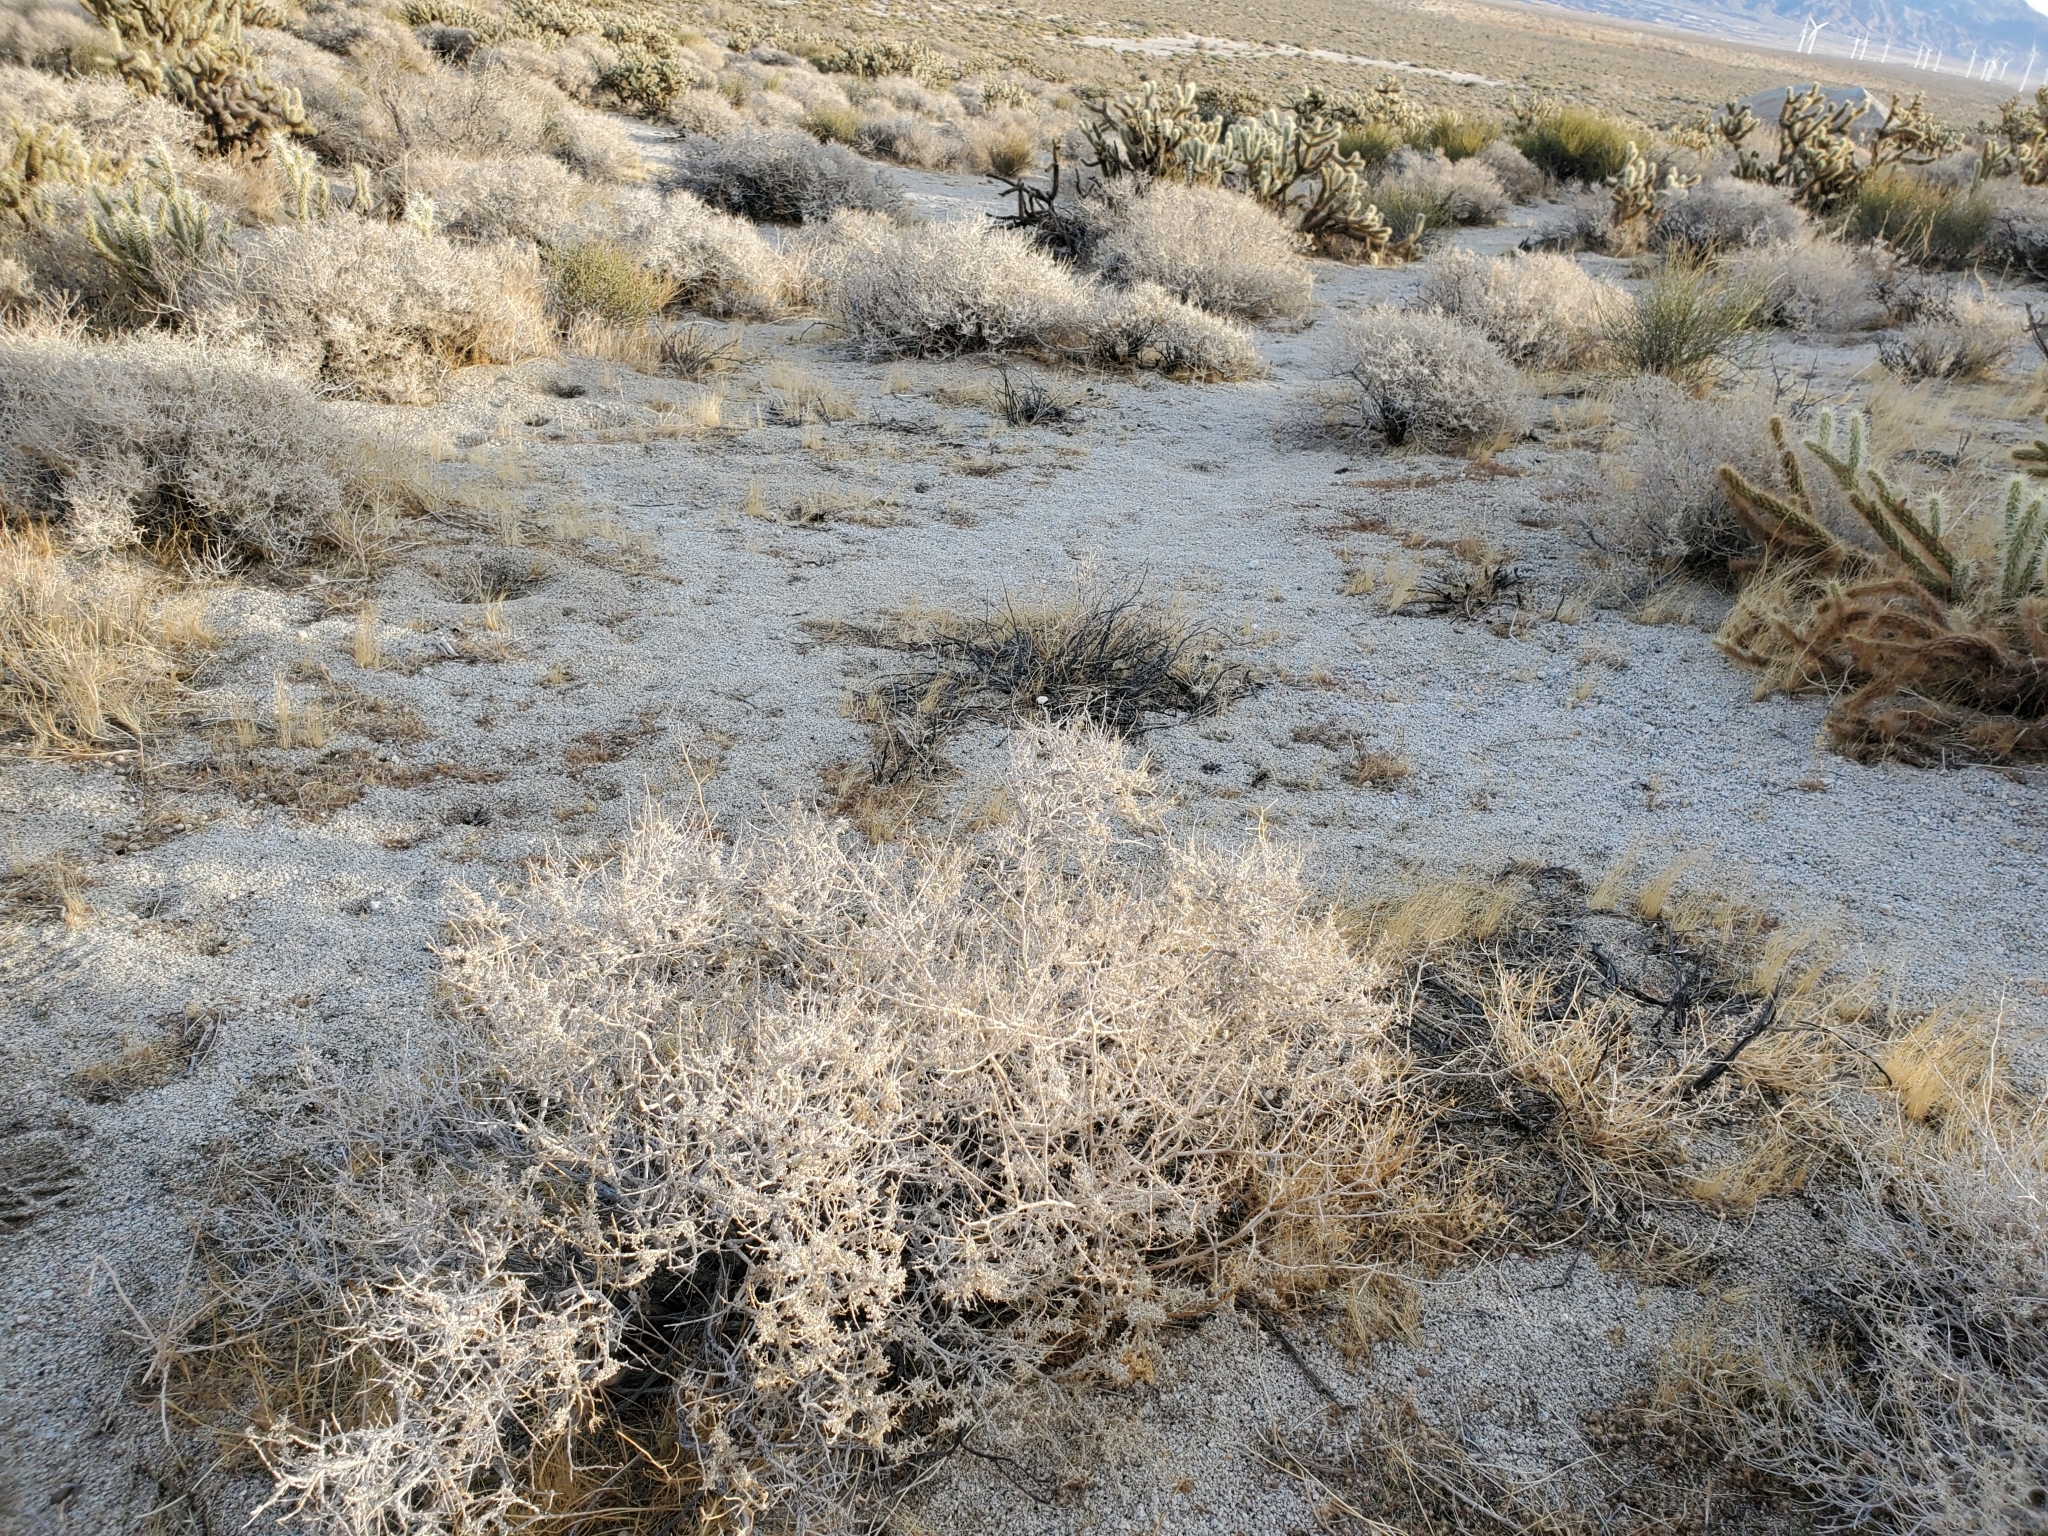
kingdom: Plantae
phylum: Tracheophyta
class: Magnoliopsida
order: Asterales
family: Asteraceae
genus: Ambrosia
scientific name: Ambrosia dumosa
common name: Bur-sage
